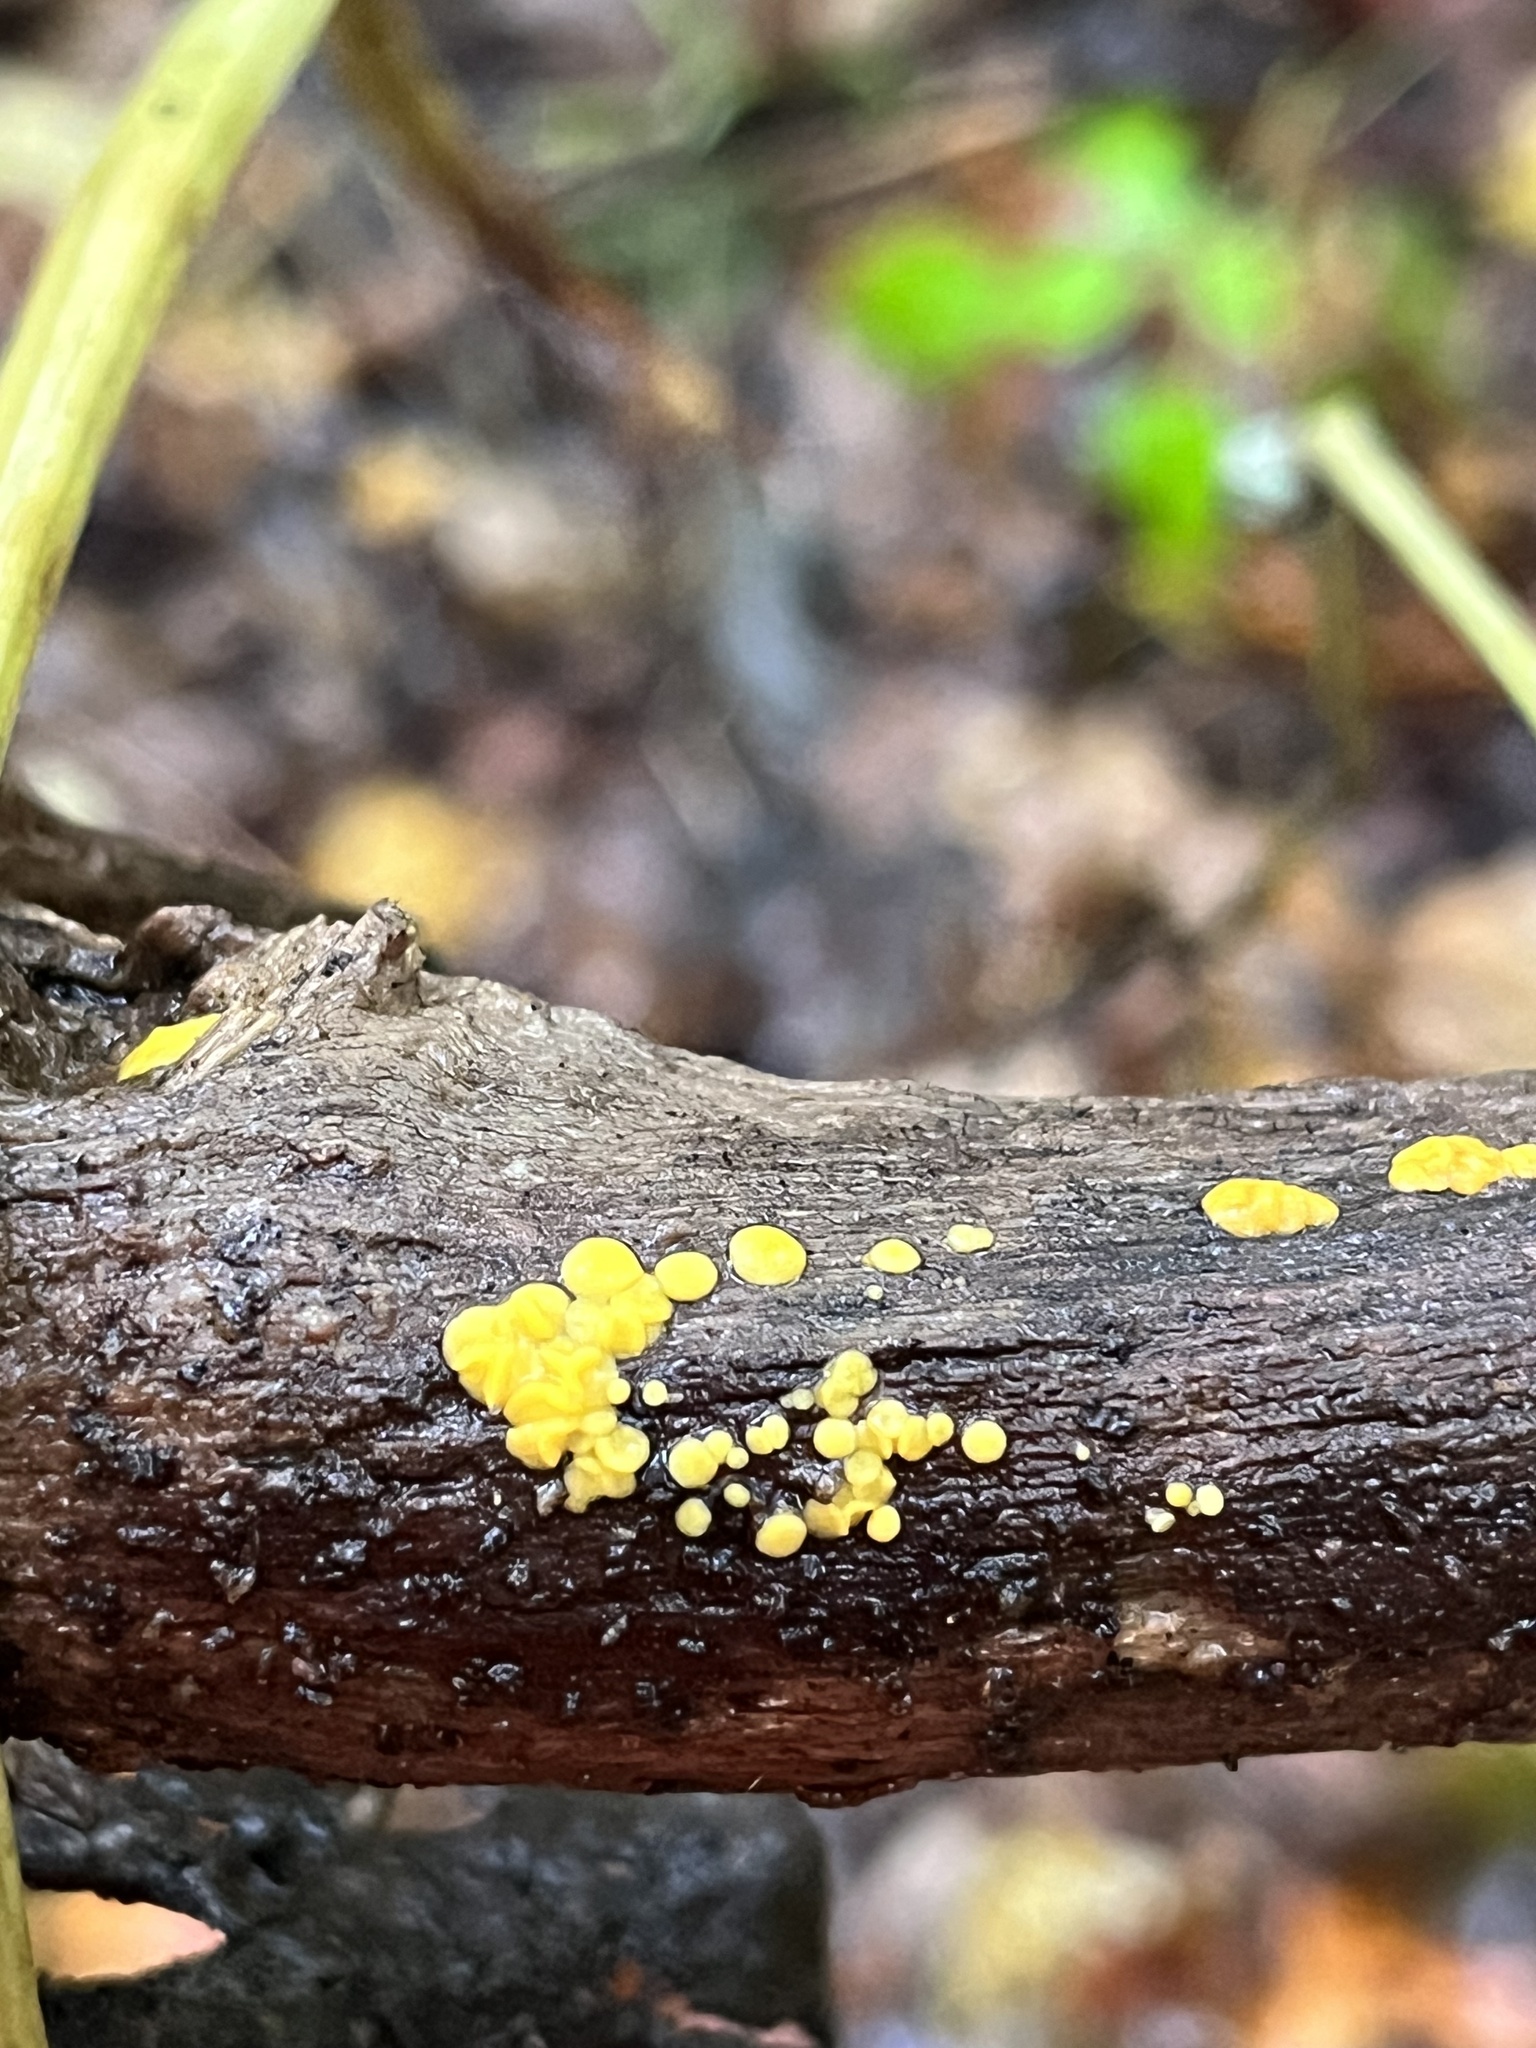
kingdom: Fungi
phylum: Ascomycota
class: Leotiomycetes
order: Helotiales
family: Pezizellaceae
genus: Calycina
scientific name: Calycina citrina
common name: Yellow fairy cups
